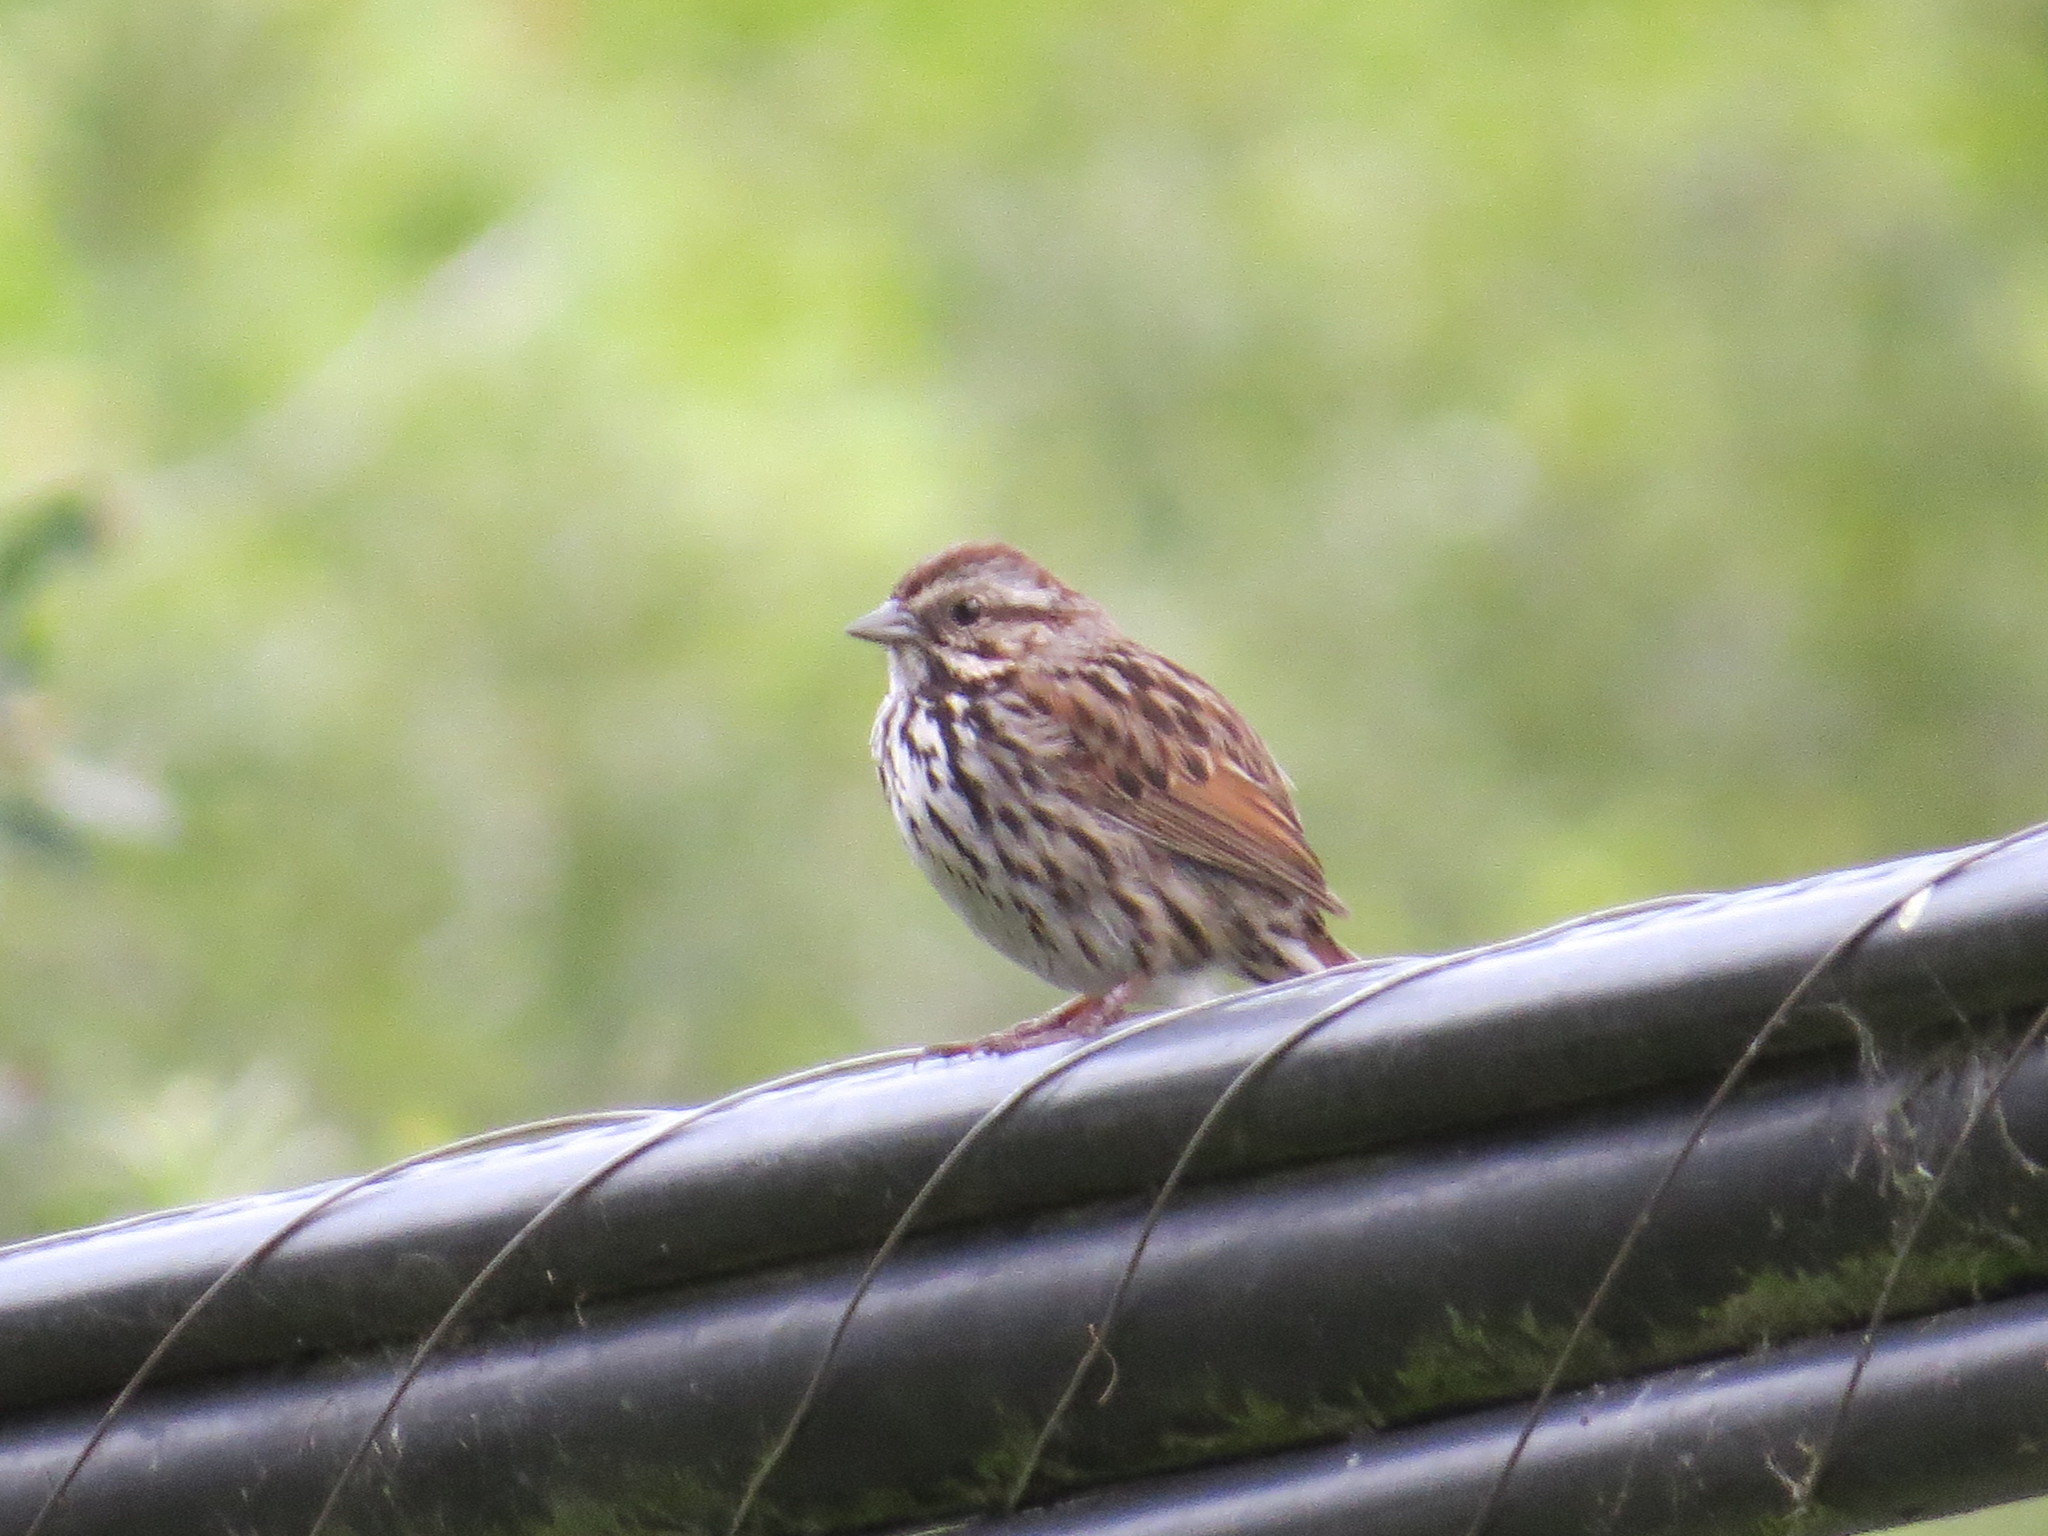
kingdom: Animalia
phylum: Chordata
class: Aves
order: Passeriformes
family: Passerellidae
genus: Melospiza
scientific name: Melospiza melodia
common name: Song sparrow
